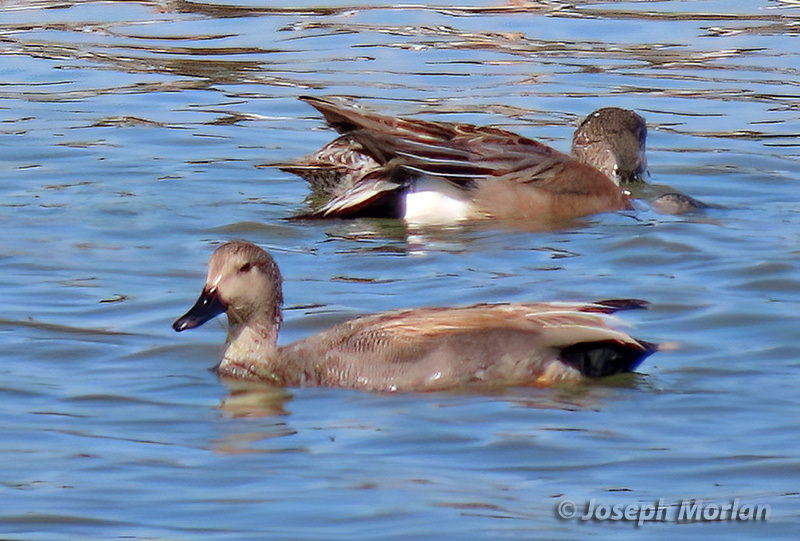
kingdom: Animalia
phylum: Chordata
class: Aves
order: Anseriformes
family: Anatidae
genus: Mareca
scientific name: Mareca strepera
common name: Gadwall
